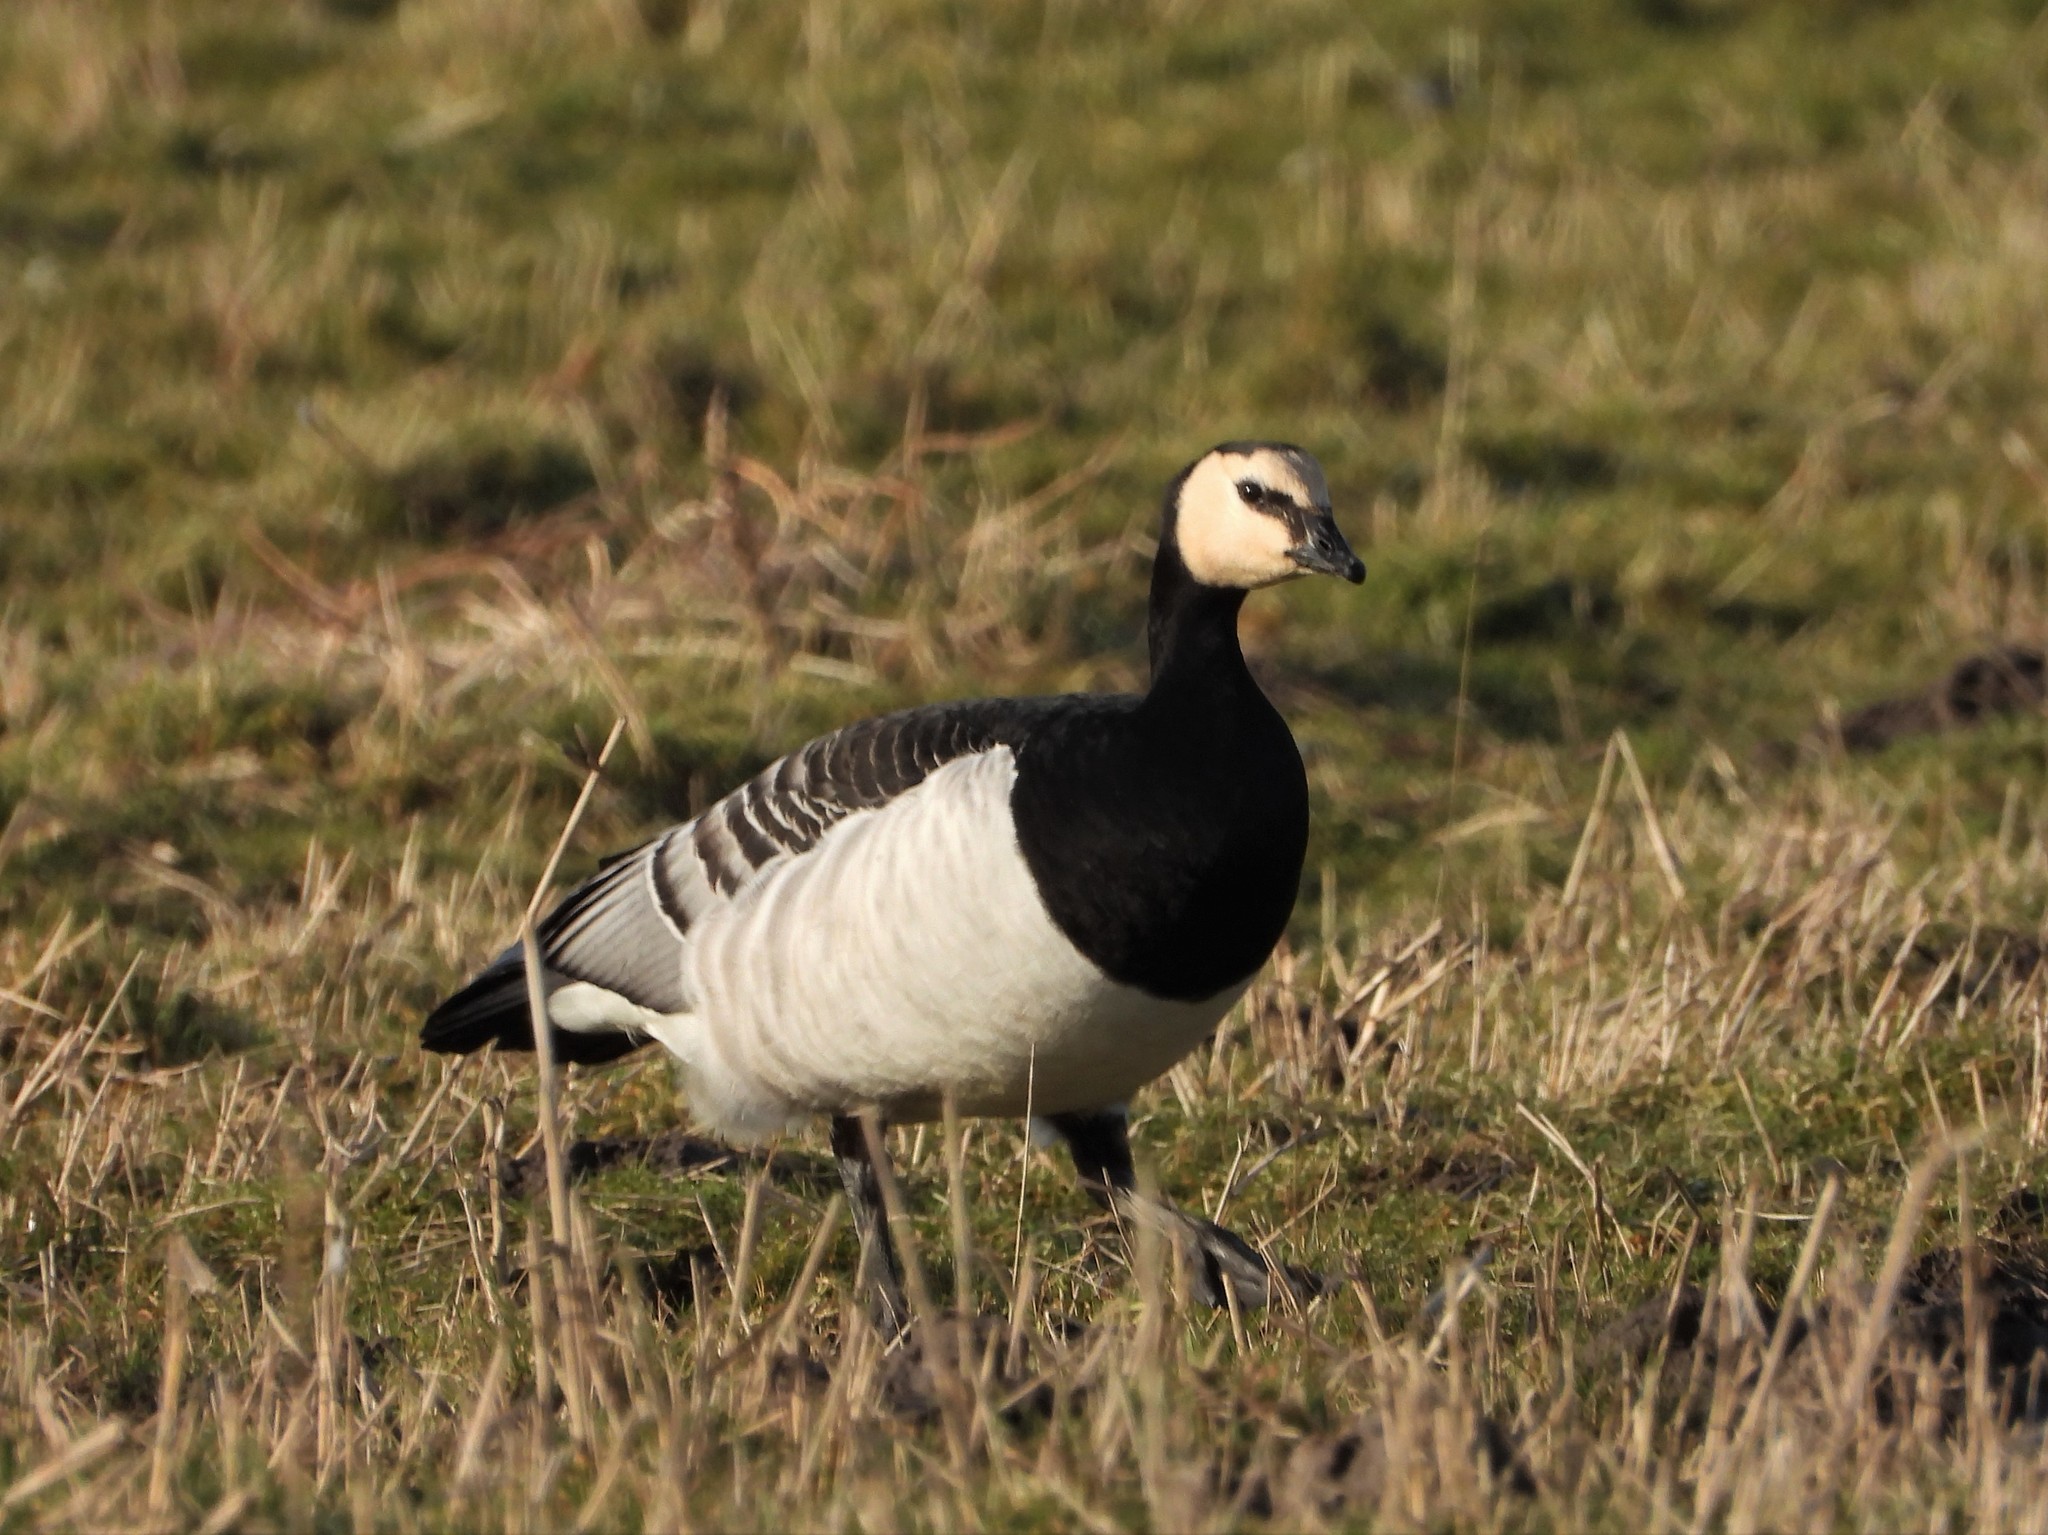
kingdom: Animalia
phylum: Chordata
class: Aves
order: Anseriformes
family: Anatidae
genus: Branta
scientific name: Branta leucopsis
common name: Barnacle goose
